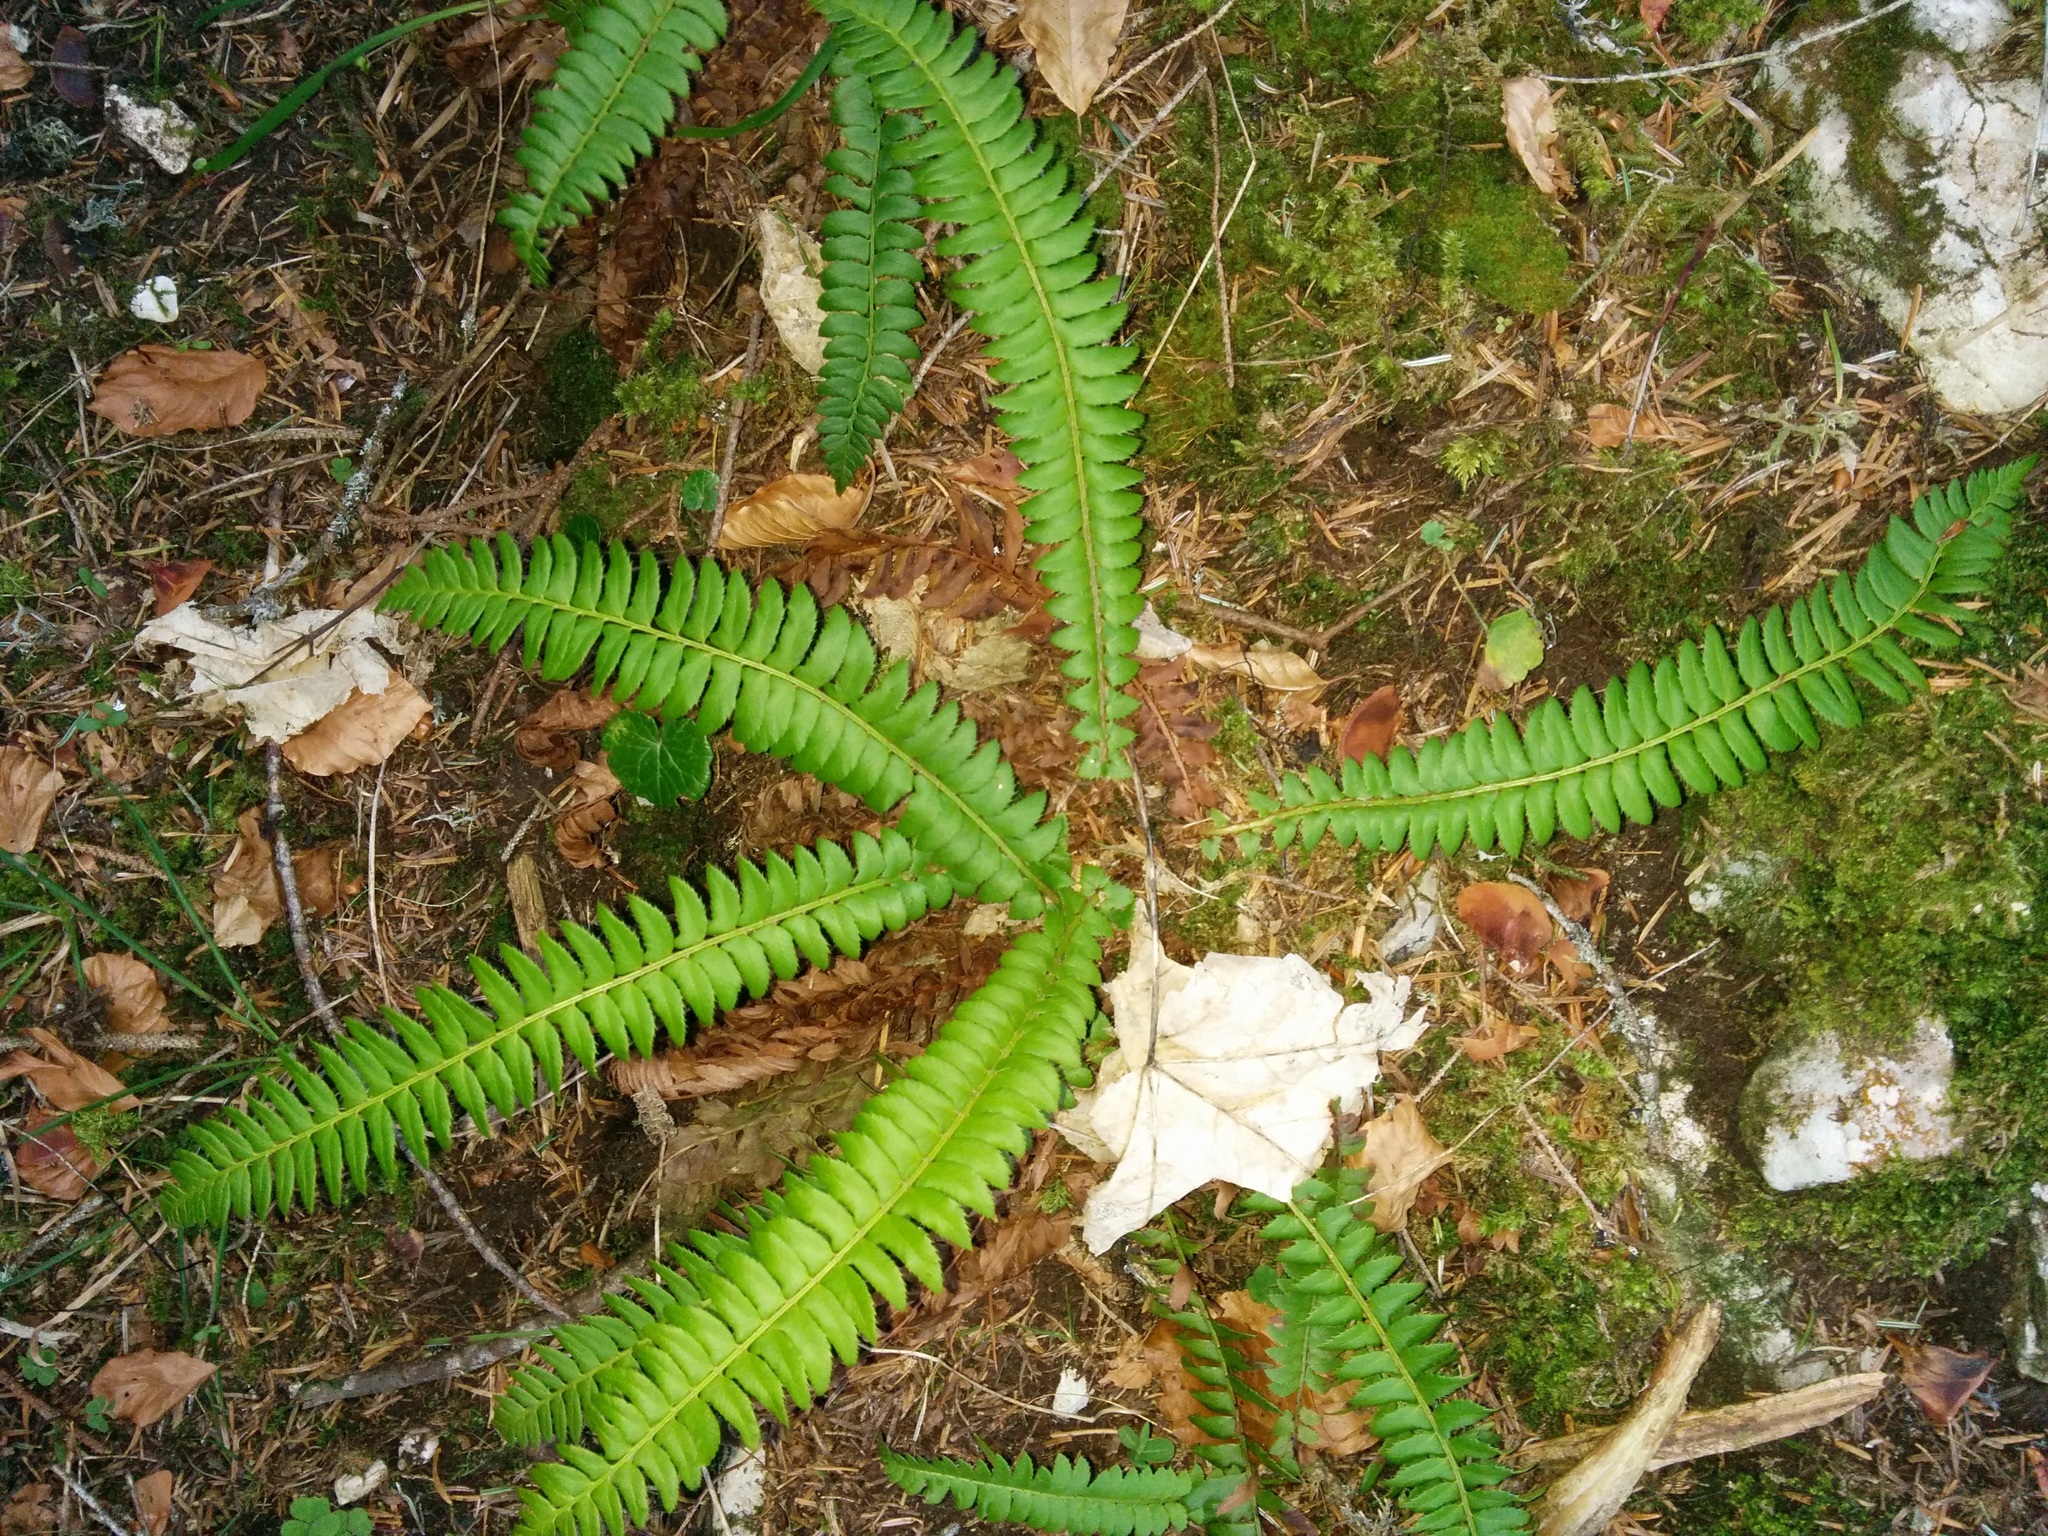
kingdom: Plantae
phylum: Tracheophyta
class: Polypodiopsida
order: Polypodiales
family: Dryopteridaceae
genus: Polystichum
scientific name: Polystichum lonchitis
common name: Holly fern
